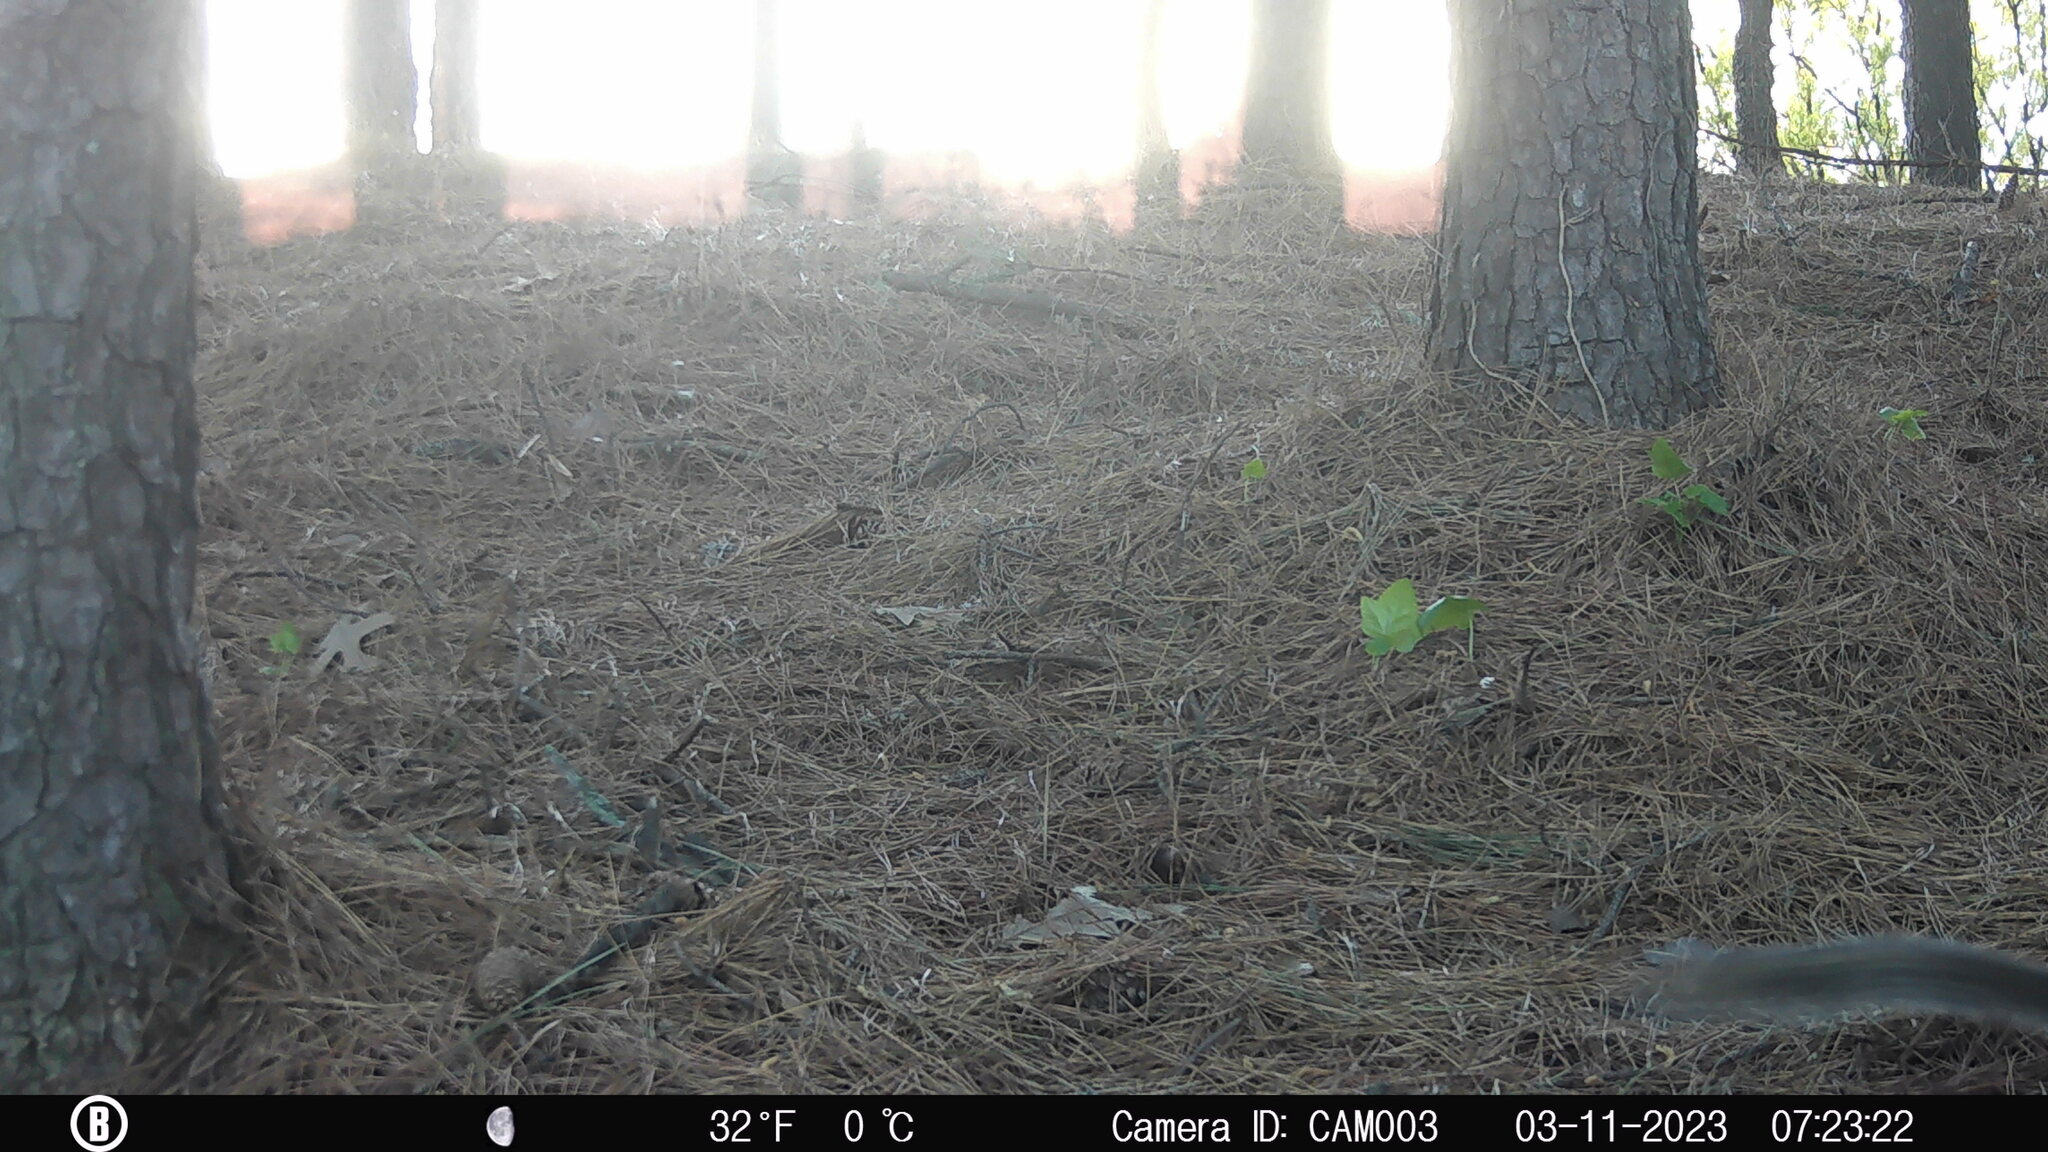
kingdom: Animalia
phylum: Chordata
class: Mammalia
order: Rodentia
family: Sciuridae
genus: Sciurus
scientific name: Sciurus carolinensis
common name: Eastern gray squirrel
